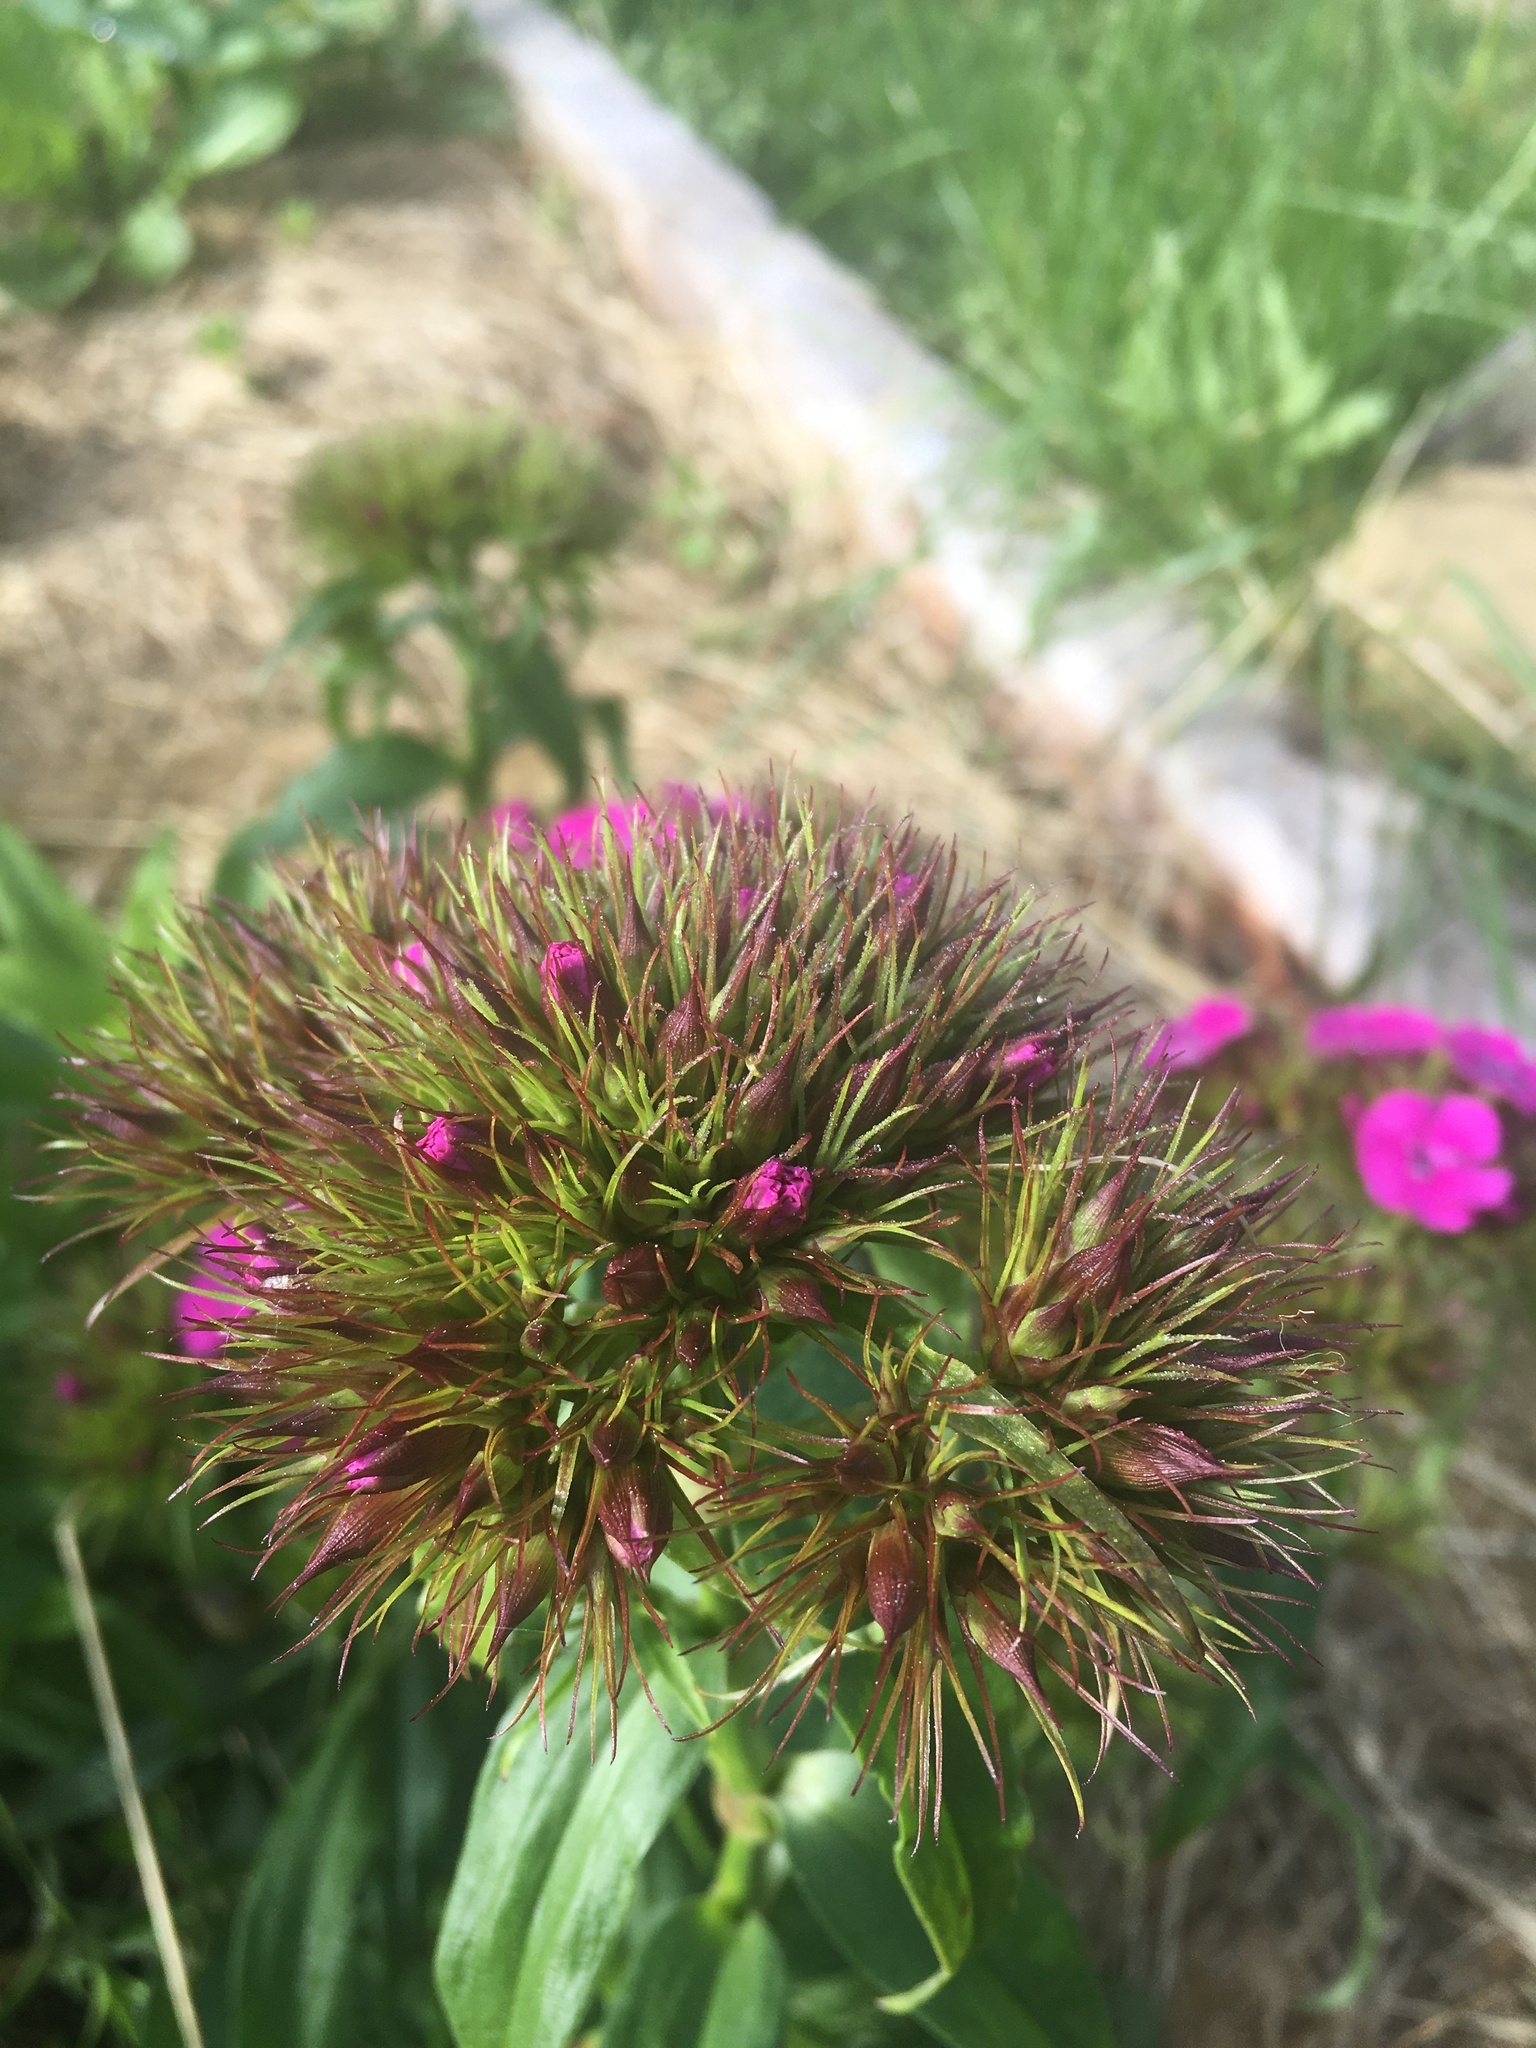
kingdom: Plantae
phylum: Tracheophyta
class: Magnoliopsida
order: Caryophyllales
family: Caryophyllaceae
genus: Dianthus
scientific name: Dianthus barbatus
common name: Sweet-william
